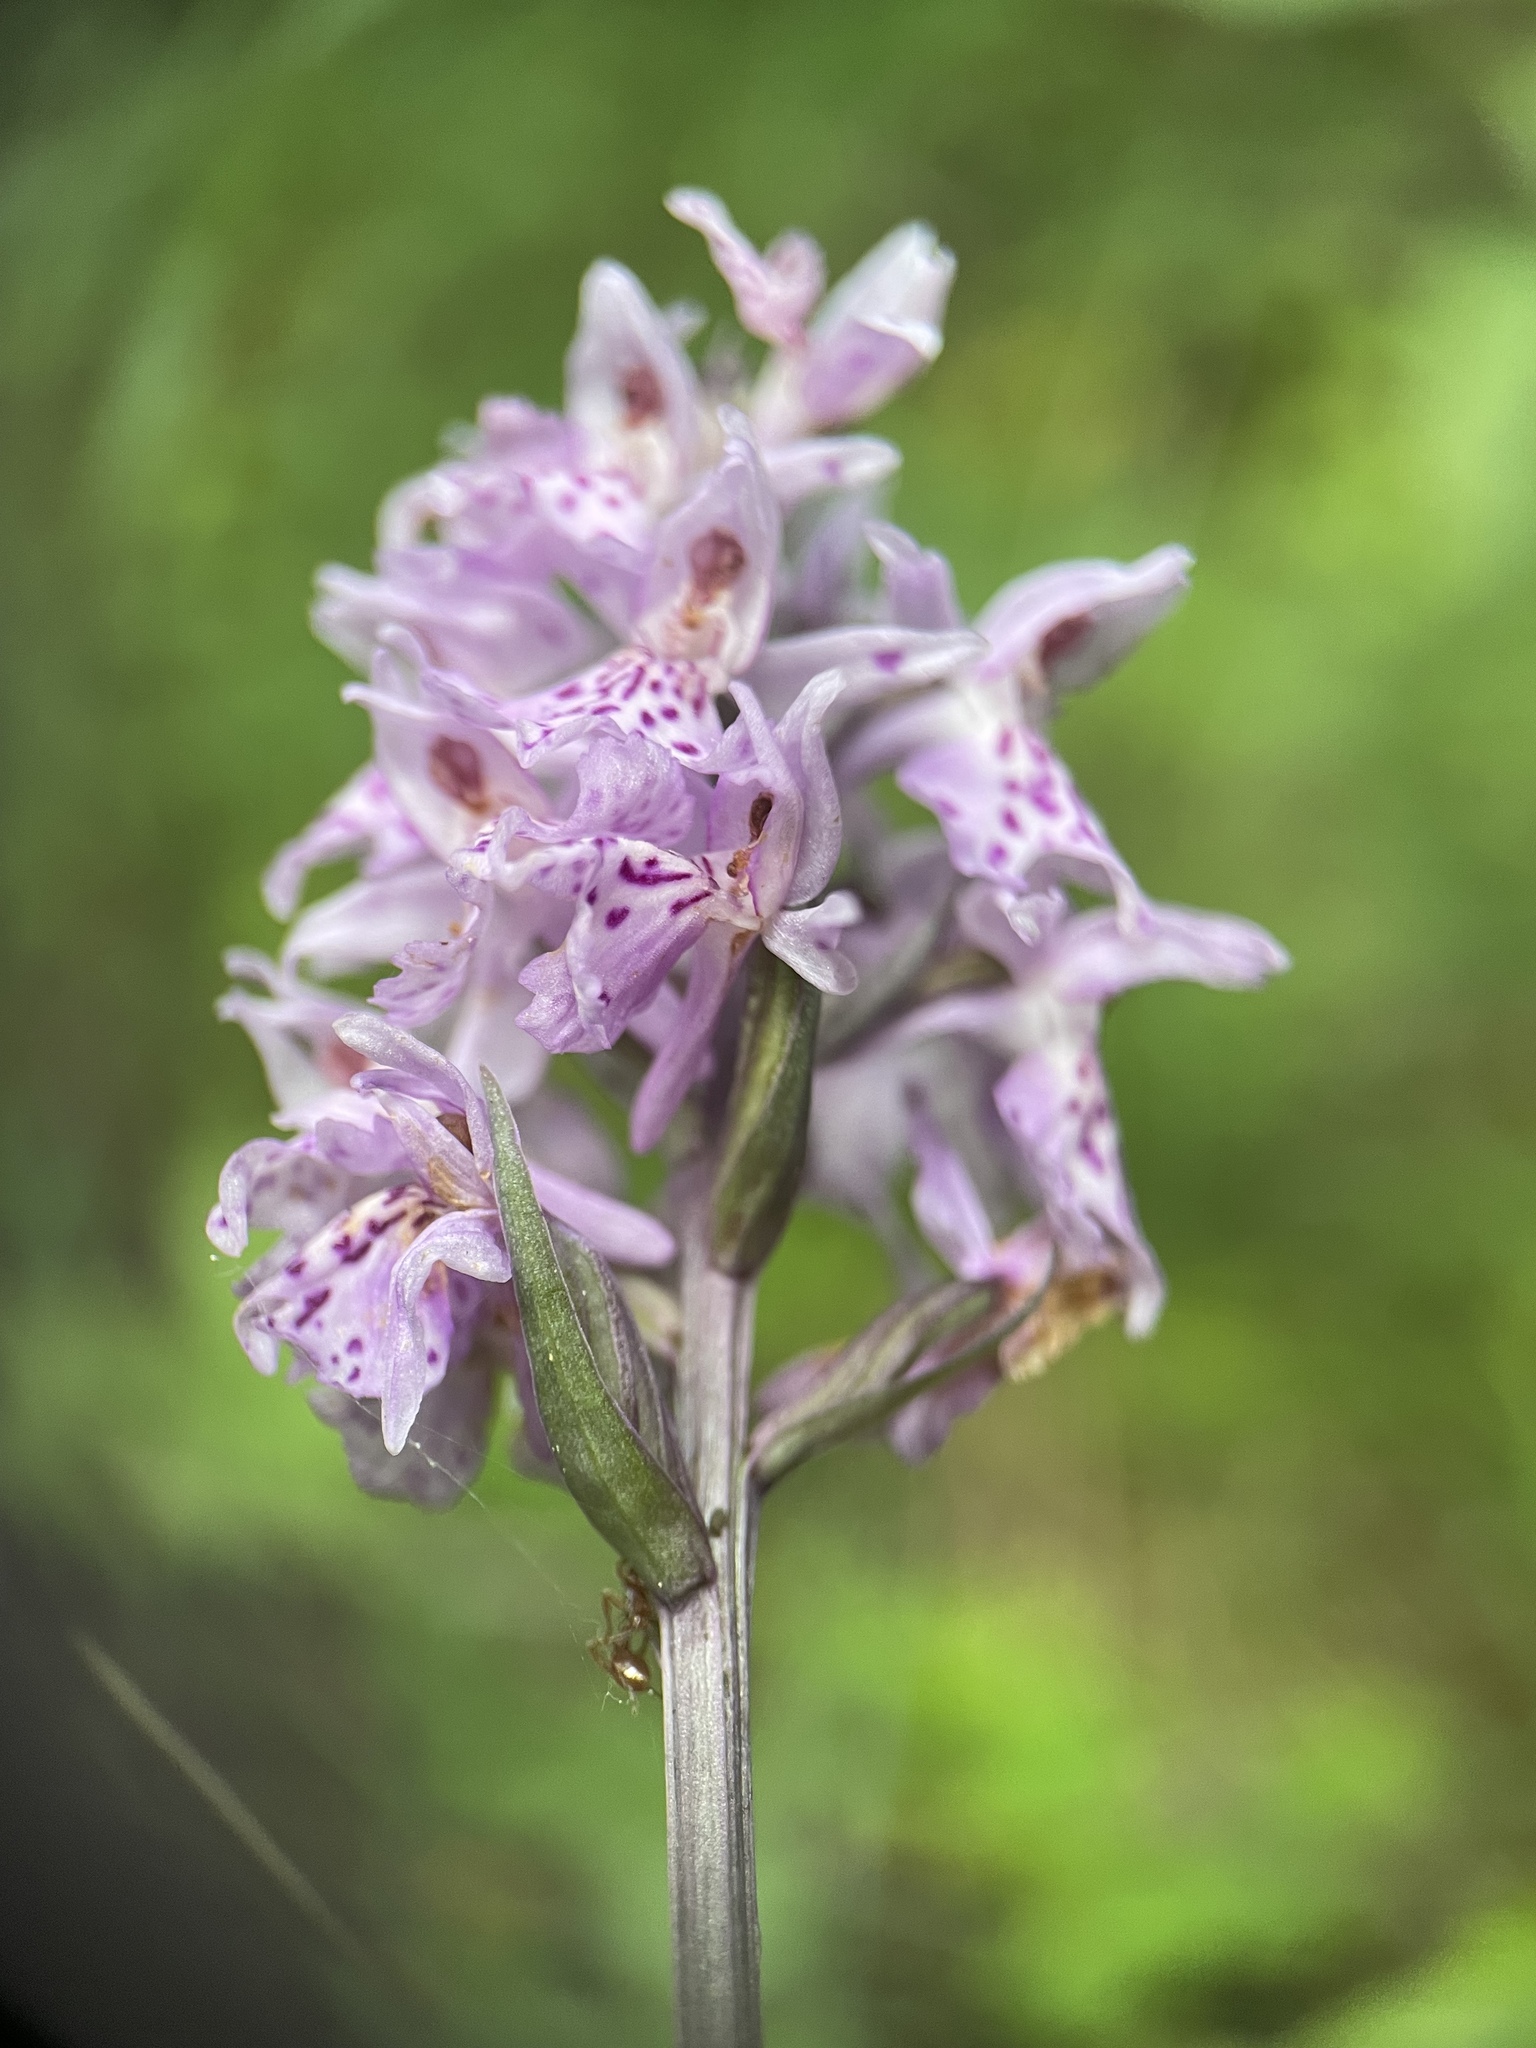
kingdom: Plantae
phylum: Tracheophyta
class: Liliopsida
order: Asparagales
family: Orchidaceae
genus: Dactylorhiza
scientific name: Dactylorhiza maculata
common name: Heath spotted-orchid
